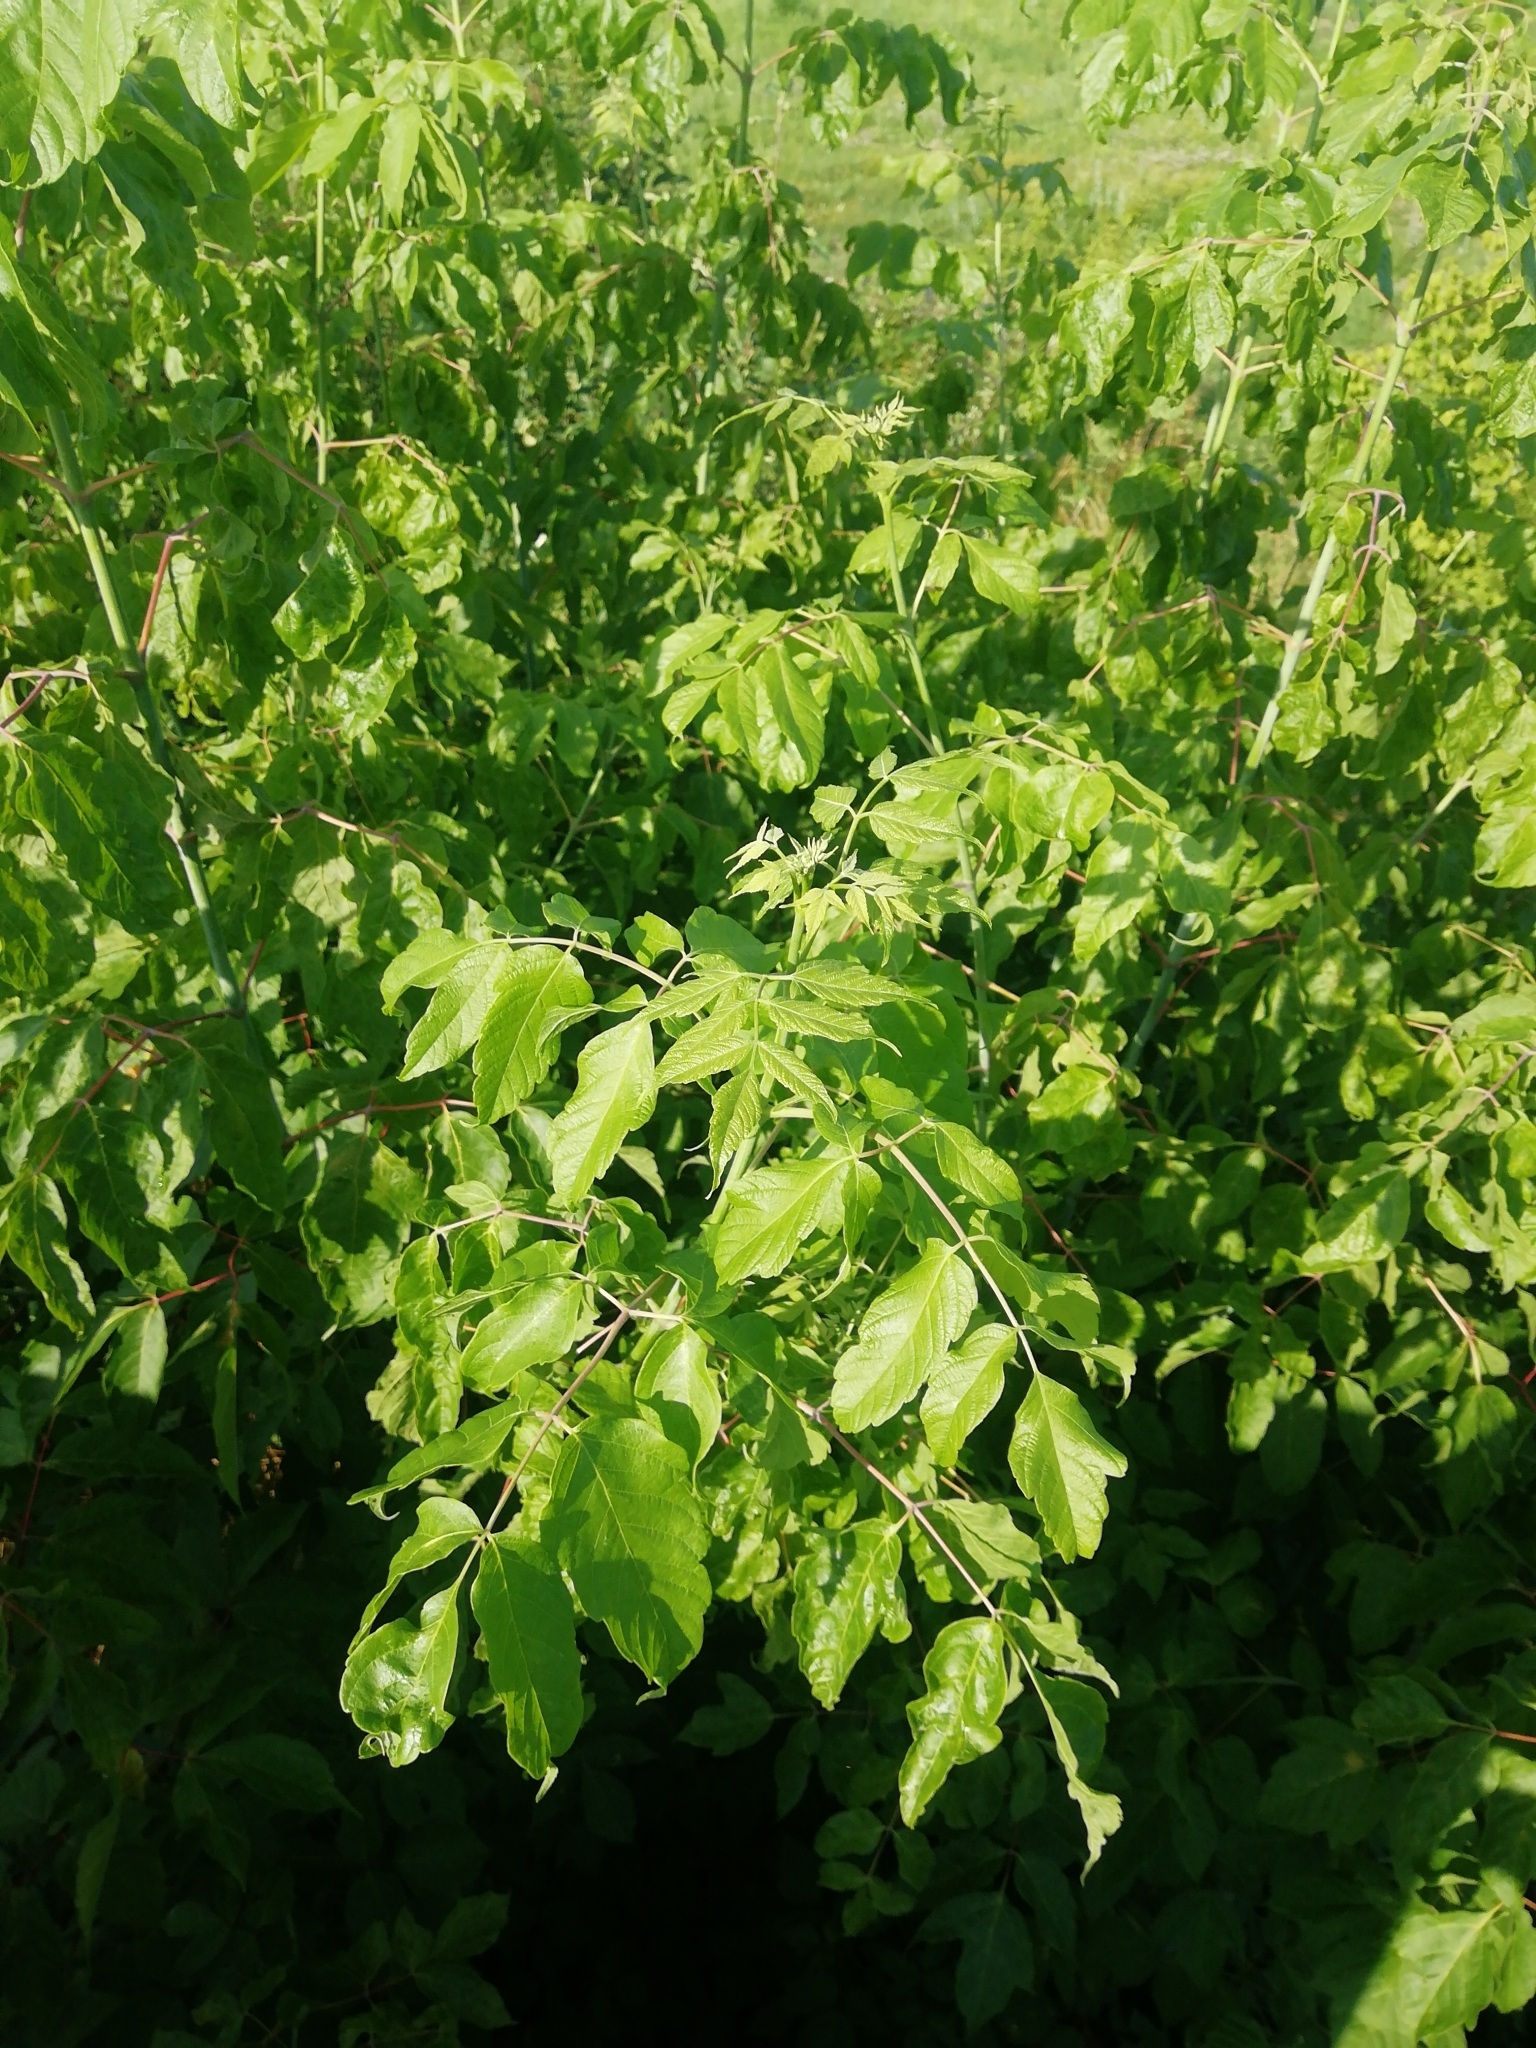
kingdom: Plantae
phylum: Tracheophyta
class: Magnoliopsida
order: Sapindales
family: Sapindaceae
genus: Acer
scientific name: Acer negundo
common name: Ashleaf maple
